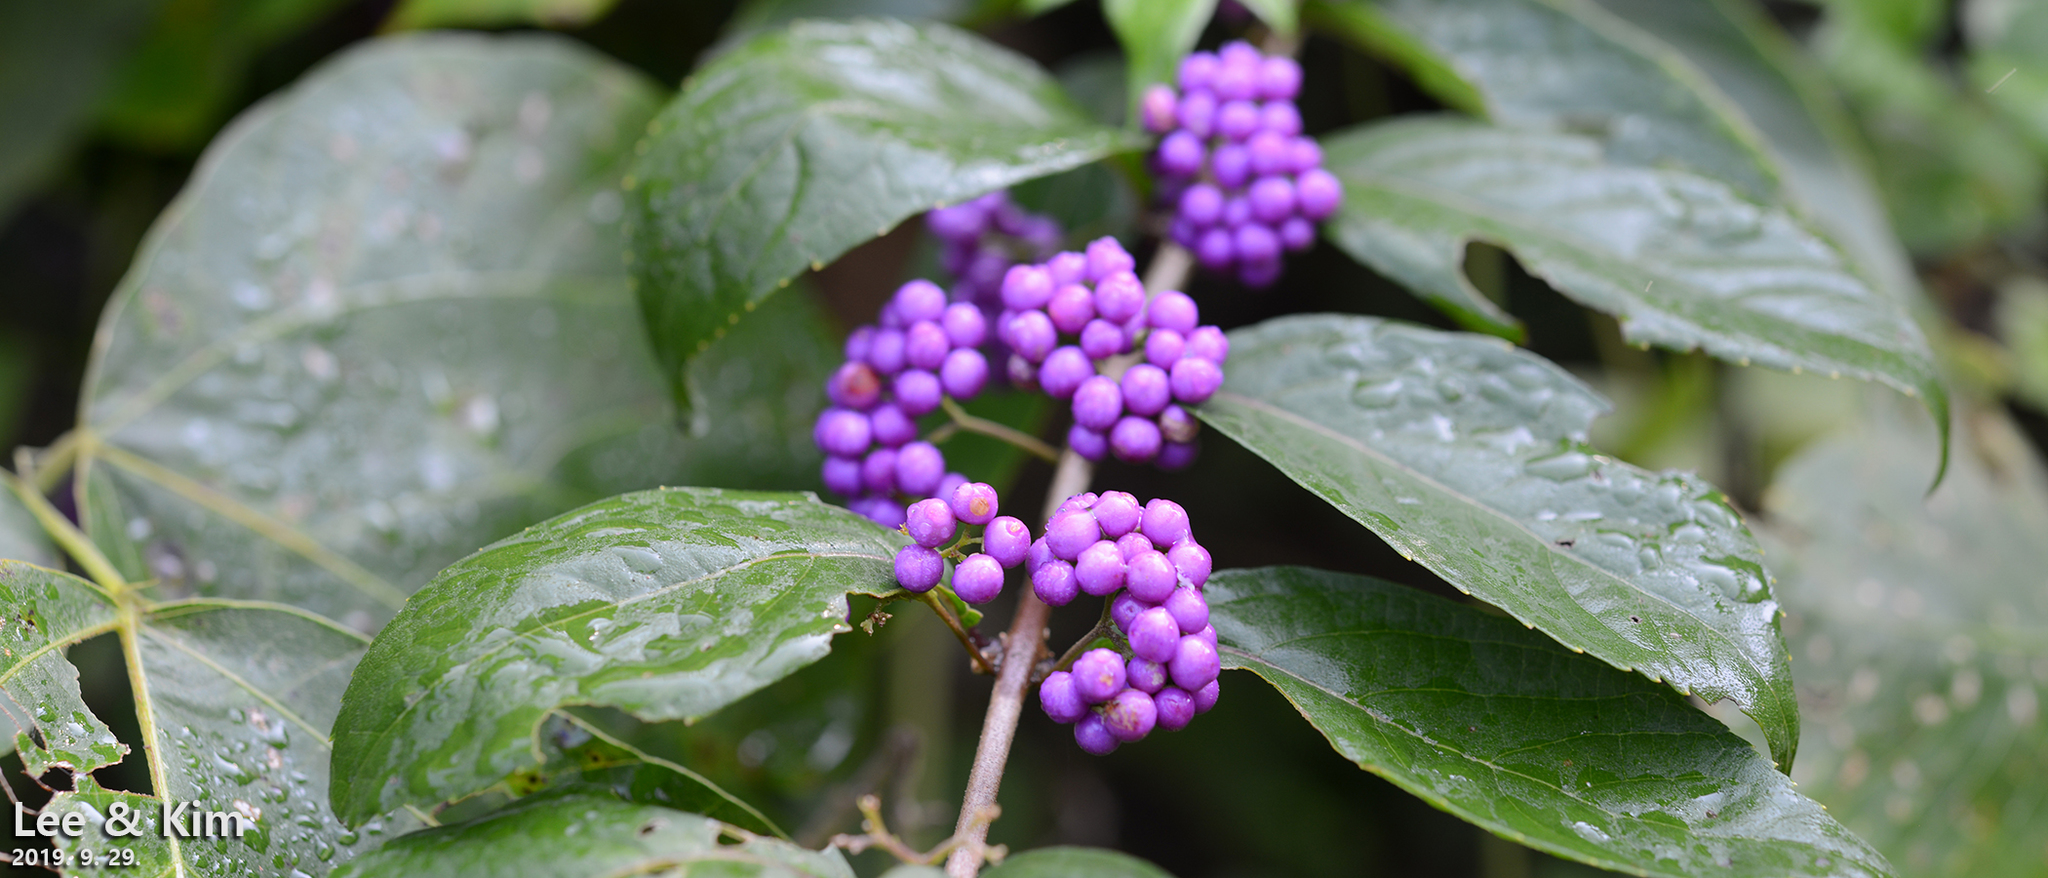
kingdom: Plantae
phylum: Tracheophyta
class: Magnoliopsida
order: Lamiales
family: Lamiaceae
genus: Callicarpa
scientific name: Callicarpa japonica
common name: Japanese beauty-berry
